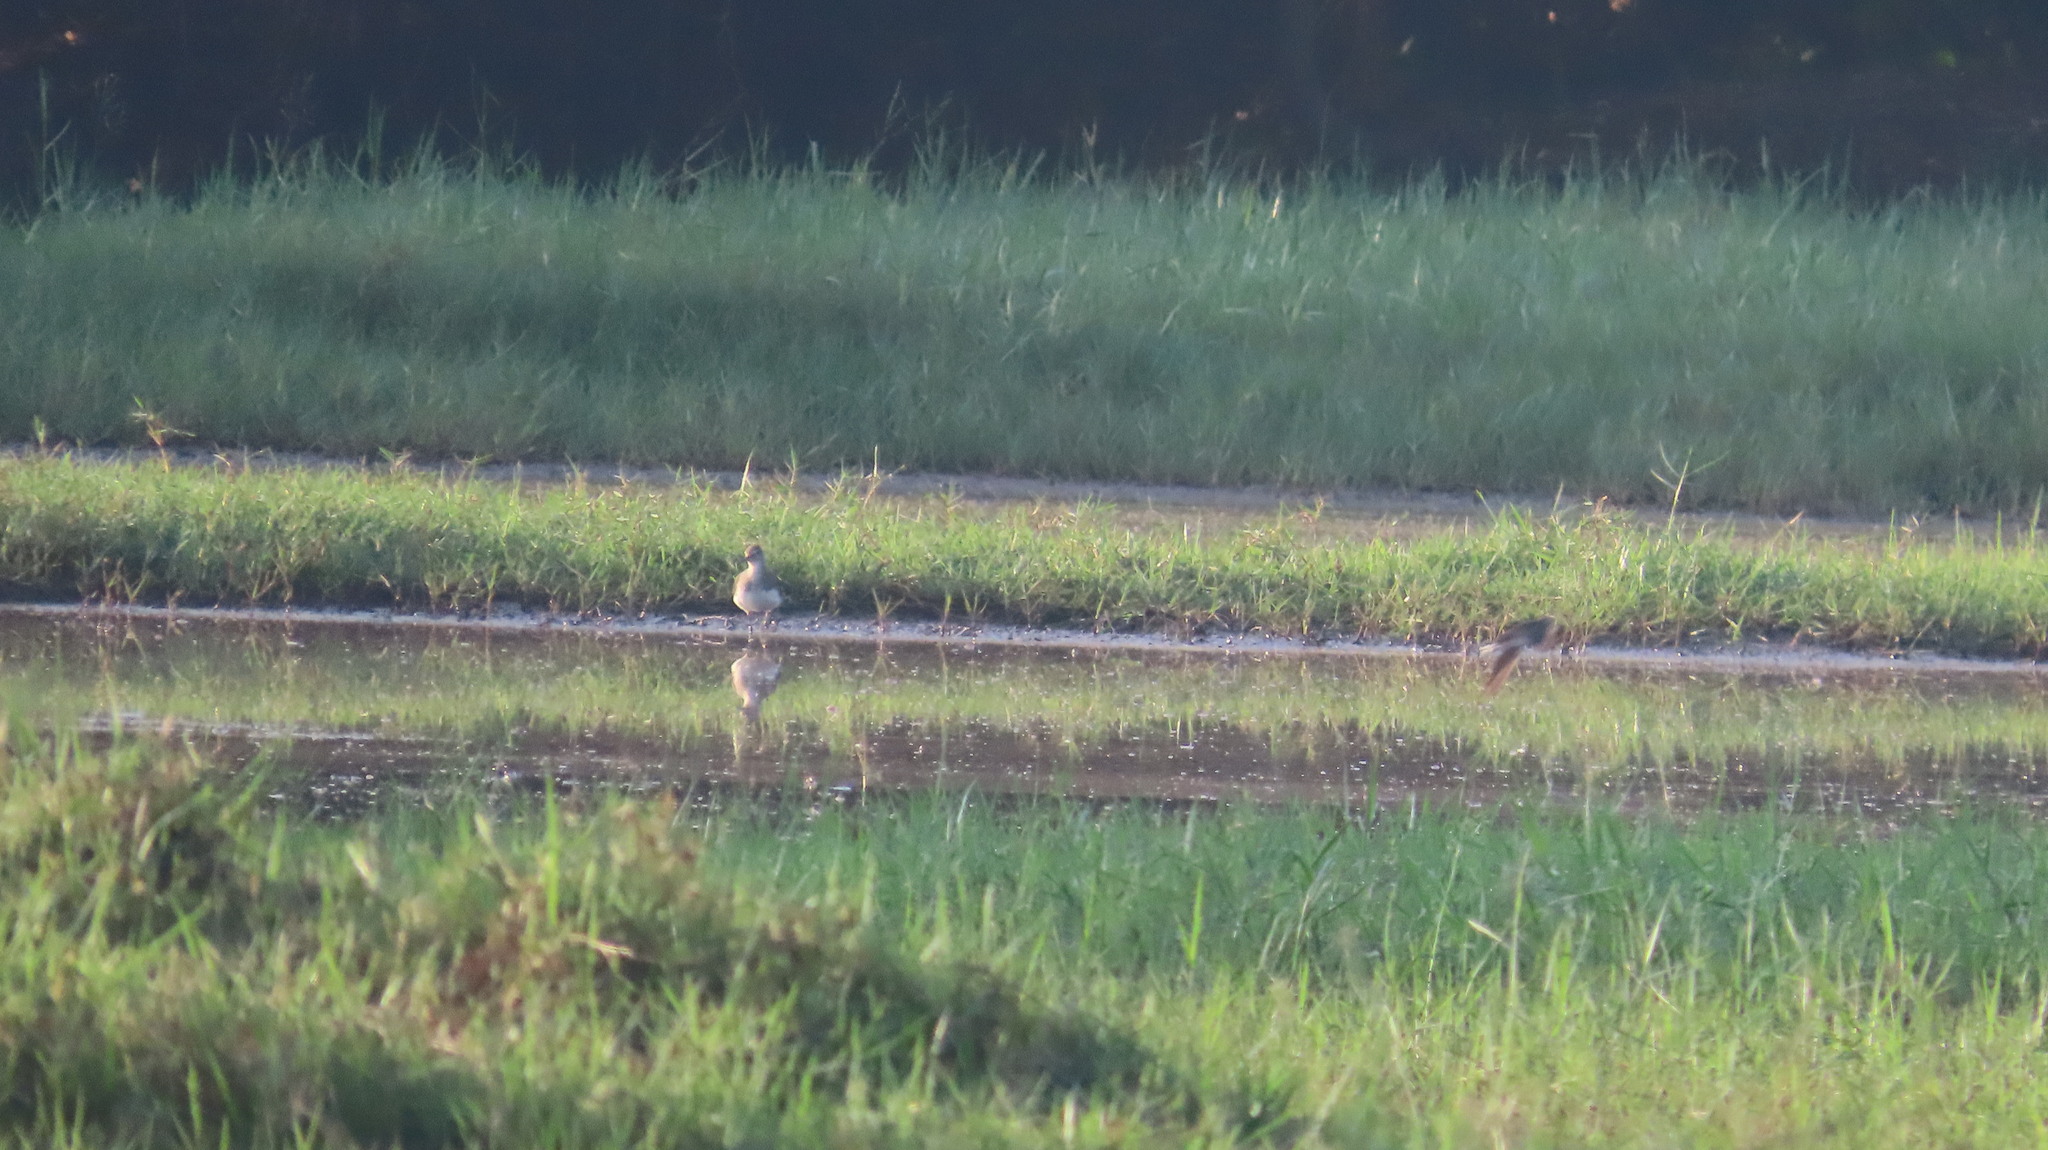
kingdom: Animalia
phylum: Chordata
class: Aves
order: Charadriiformes
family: Scolopacidae
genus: Tringa
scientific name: Tringa glareola
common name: Wood sandpiper
